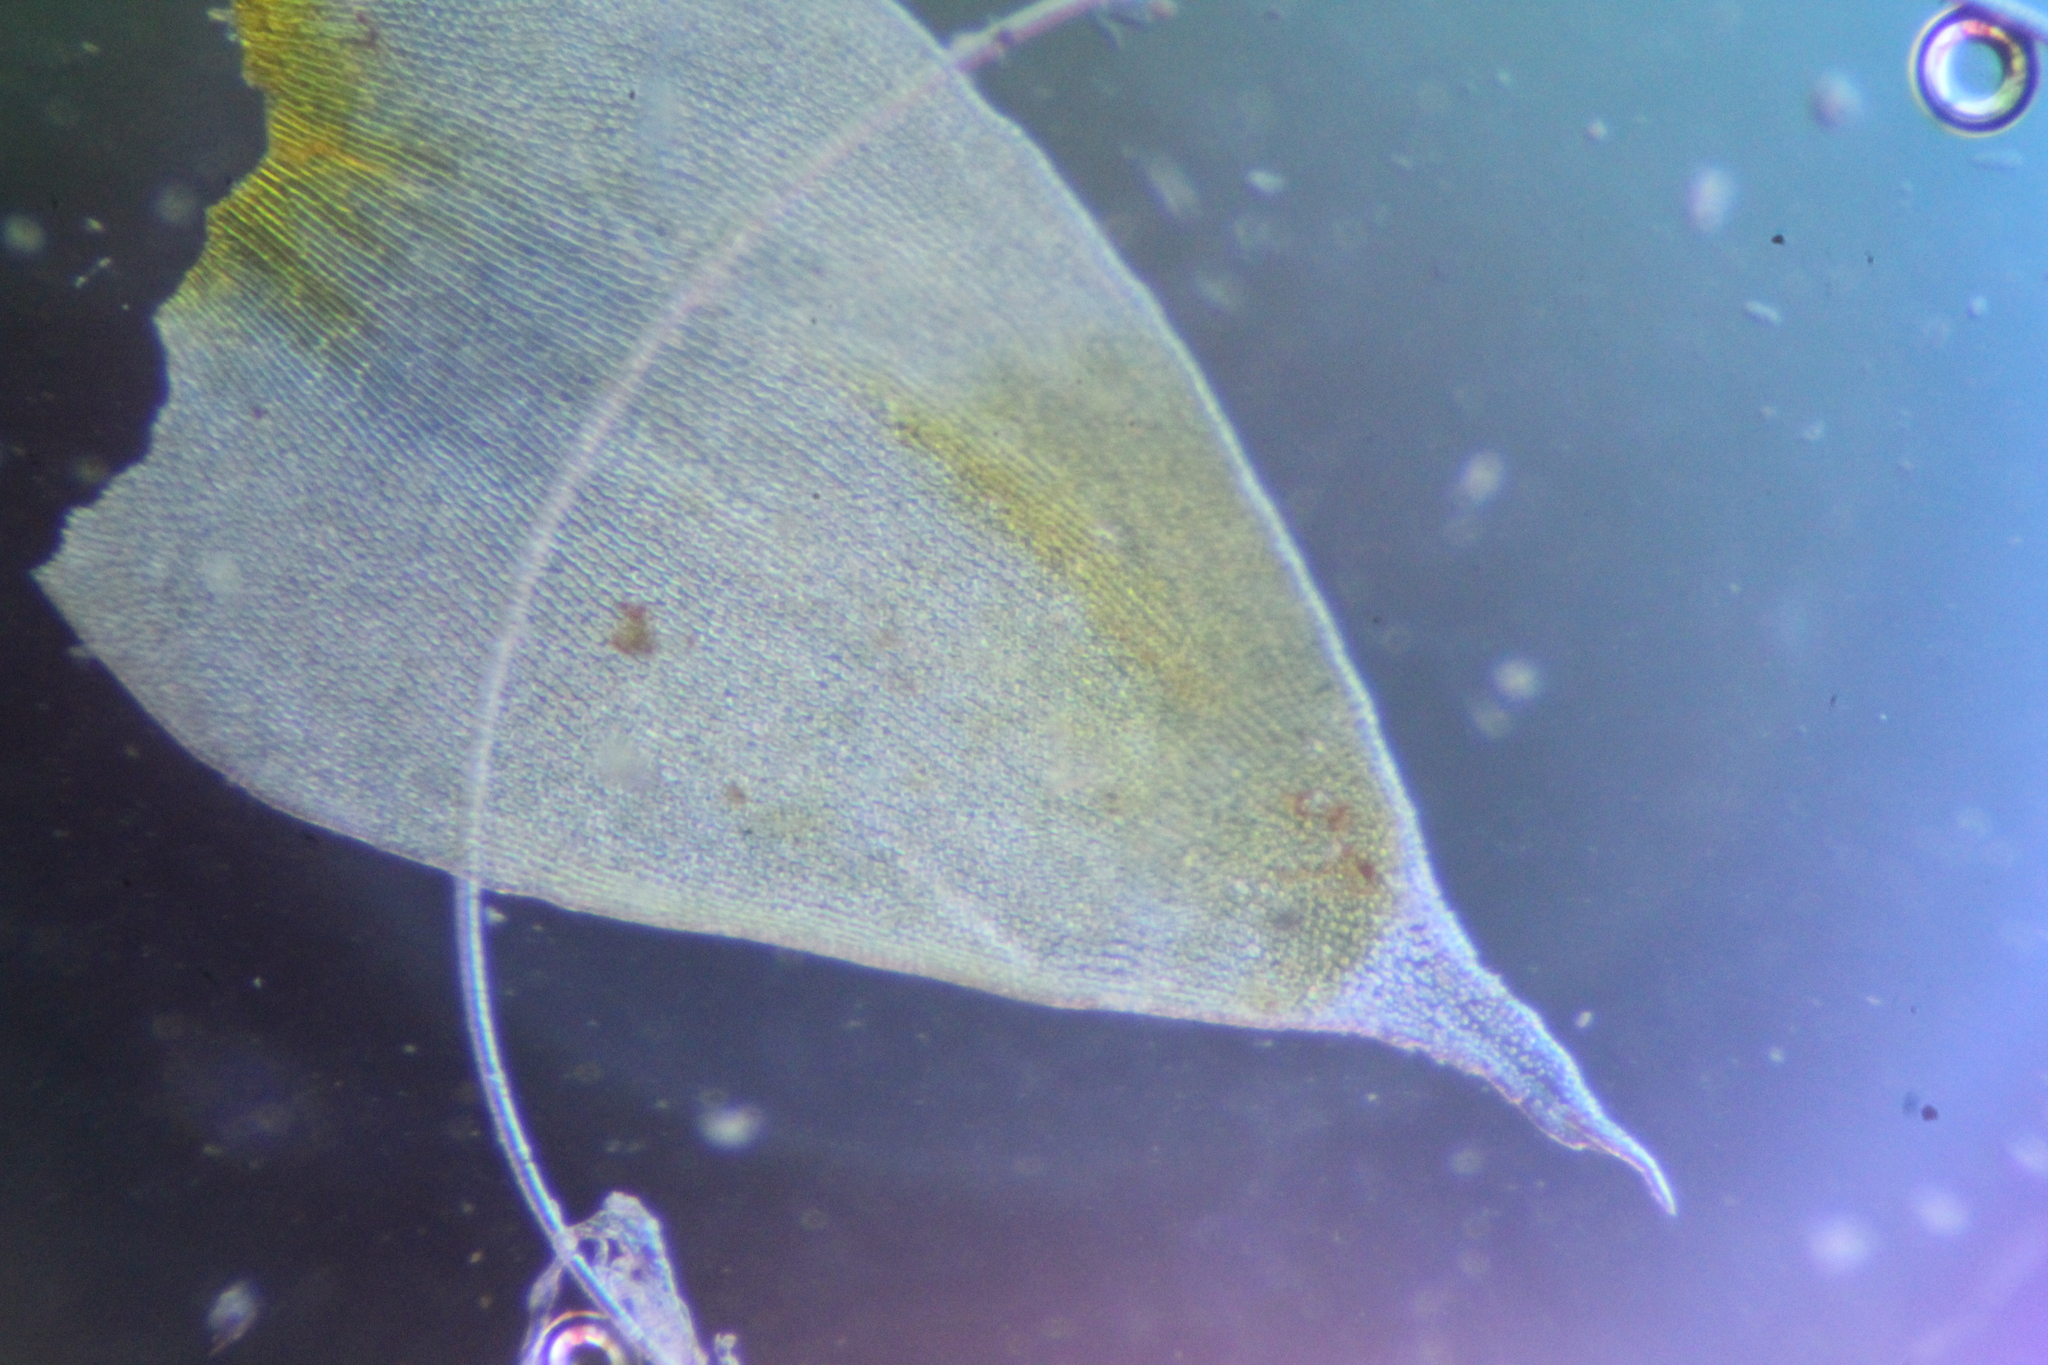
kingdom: Plantae
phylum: Bryophyta
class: Bryopsida
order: Hedwigiales
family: Hedwigiaceae
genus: Hedwigia
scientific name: Hedwigia ciliata
